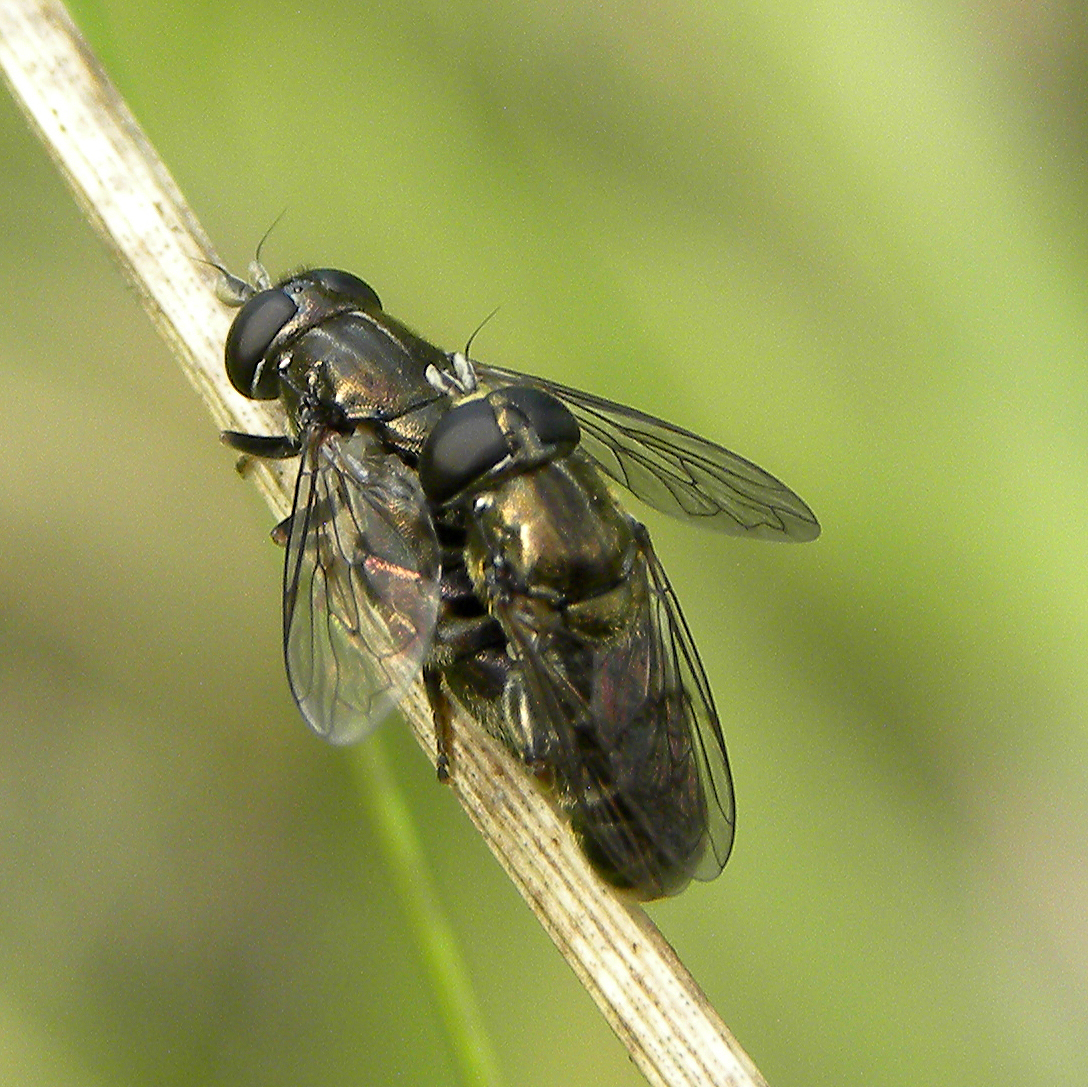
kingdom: Animalia
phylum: Arthropoda
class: Insecta
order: Diptera
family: Syrphidae
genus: Eumerus
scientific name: Eumerus
